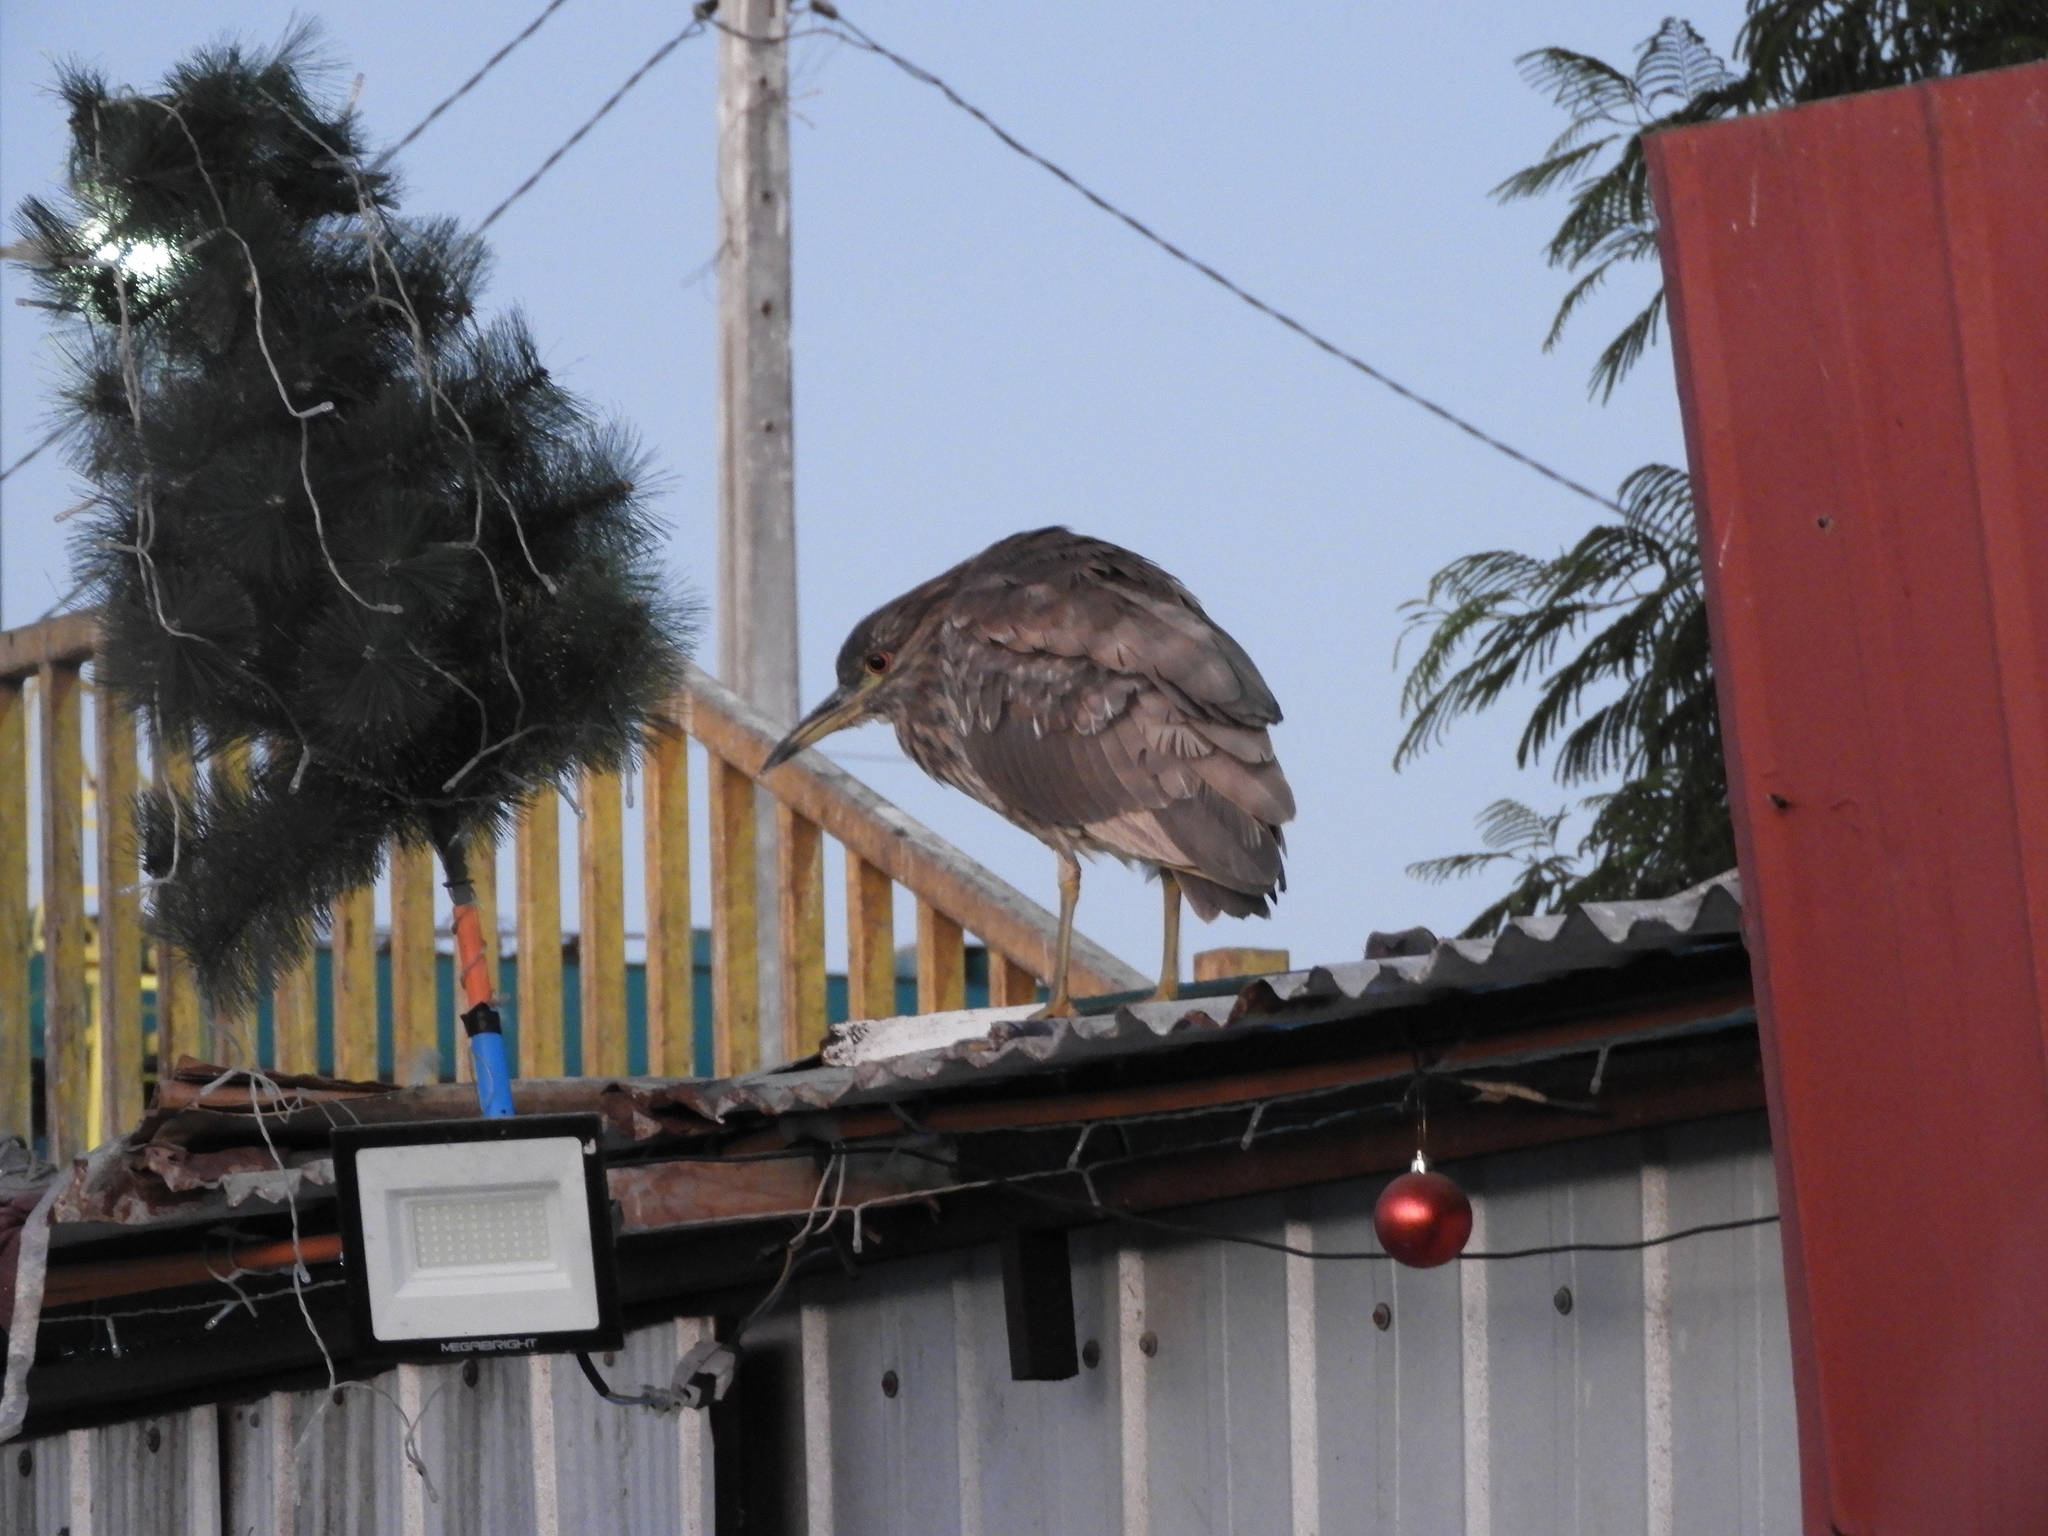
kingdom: Animalia
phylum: Chordata
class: Aves
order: Pelecaniformes
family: Ardeidae
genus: Nycticorax
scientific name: Nycticorax nycticorax
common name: Black-crowned night heron
